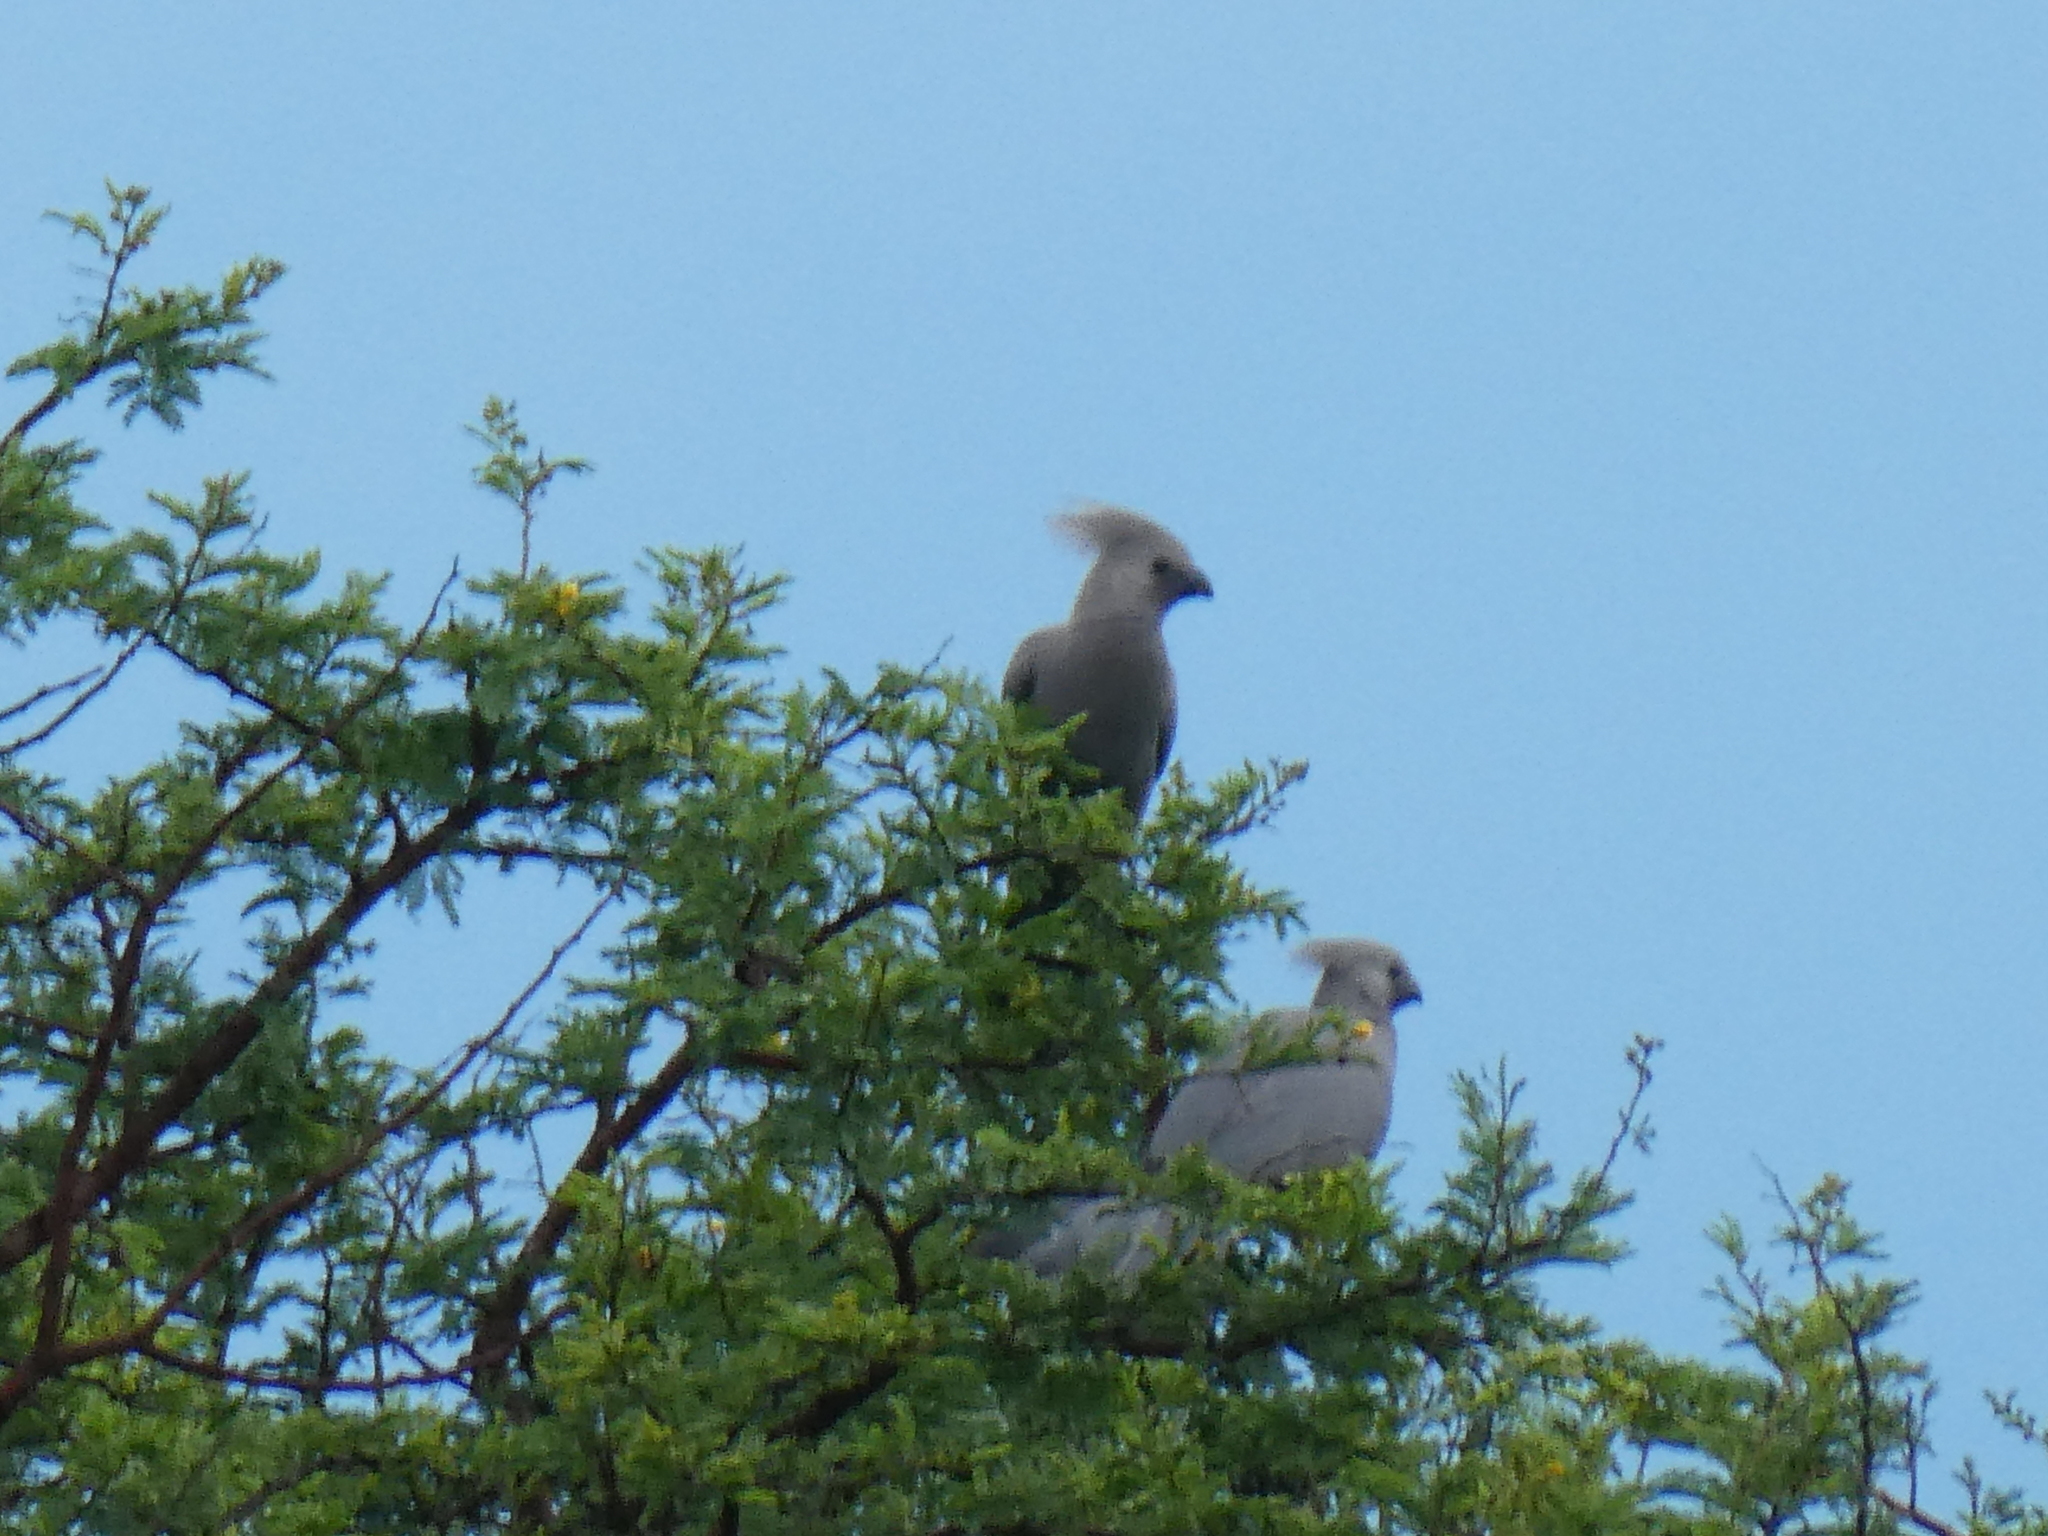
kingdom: Animalia
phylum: Chordata
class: Aves
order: Musophagiformes
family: Musophagidae
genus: Corythaixoides
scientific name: Corythaixoides concolor
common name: Grey go-away-bird
